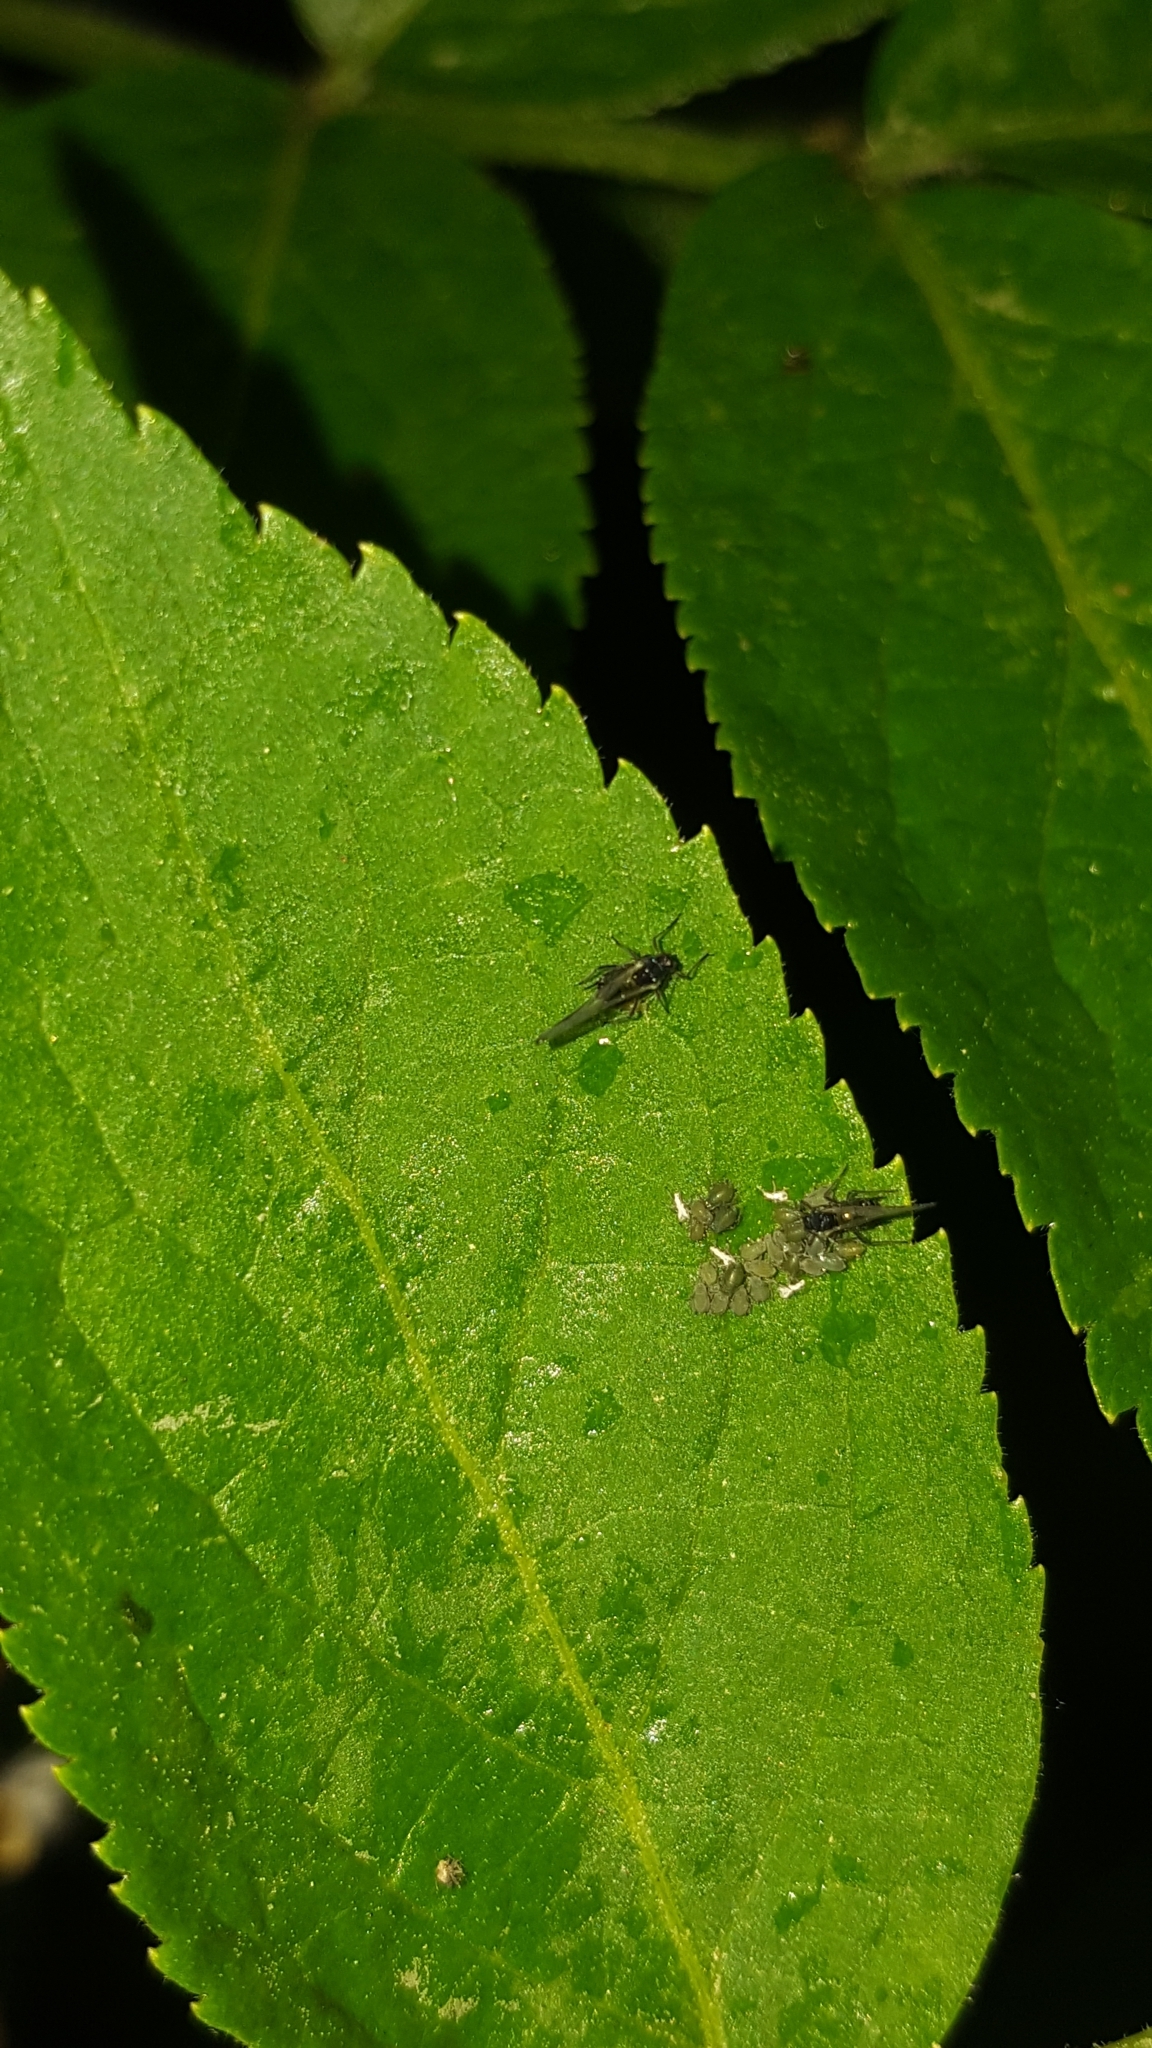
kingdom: Animalia
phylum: Arthropoda
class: Insecta
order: Hemiptera
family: Aphididae
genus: Aphis
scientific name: Aphis sambuci
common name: Elder aphid
